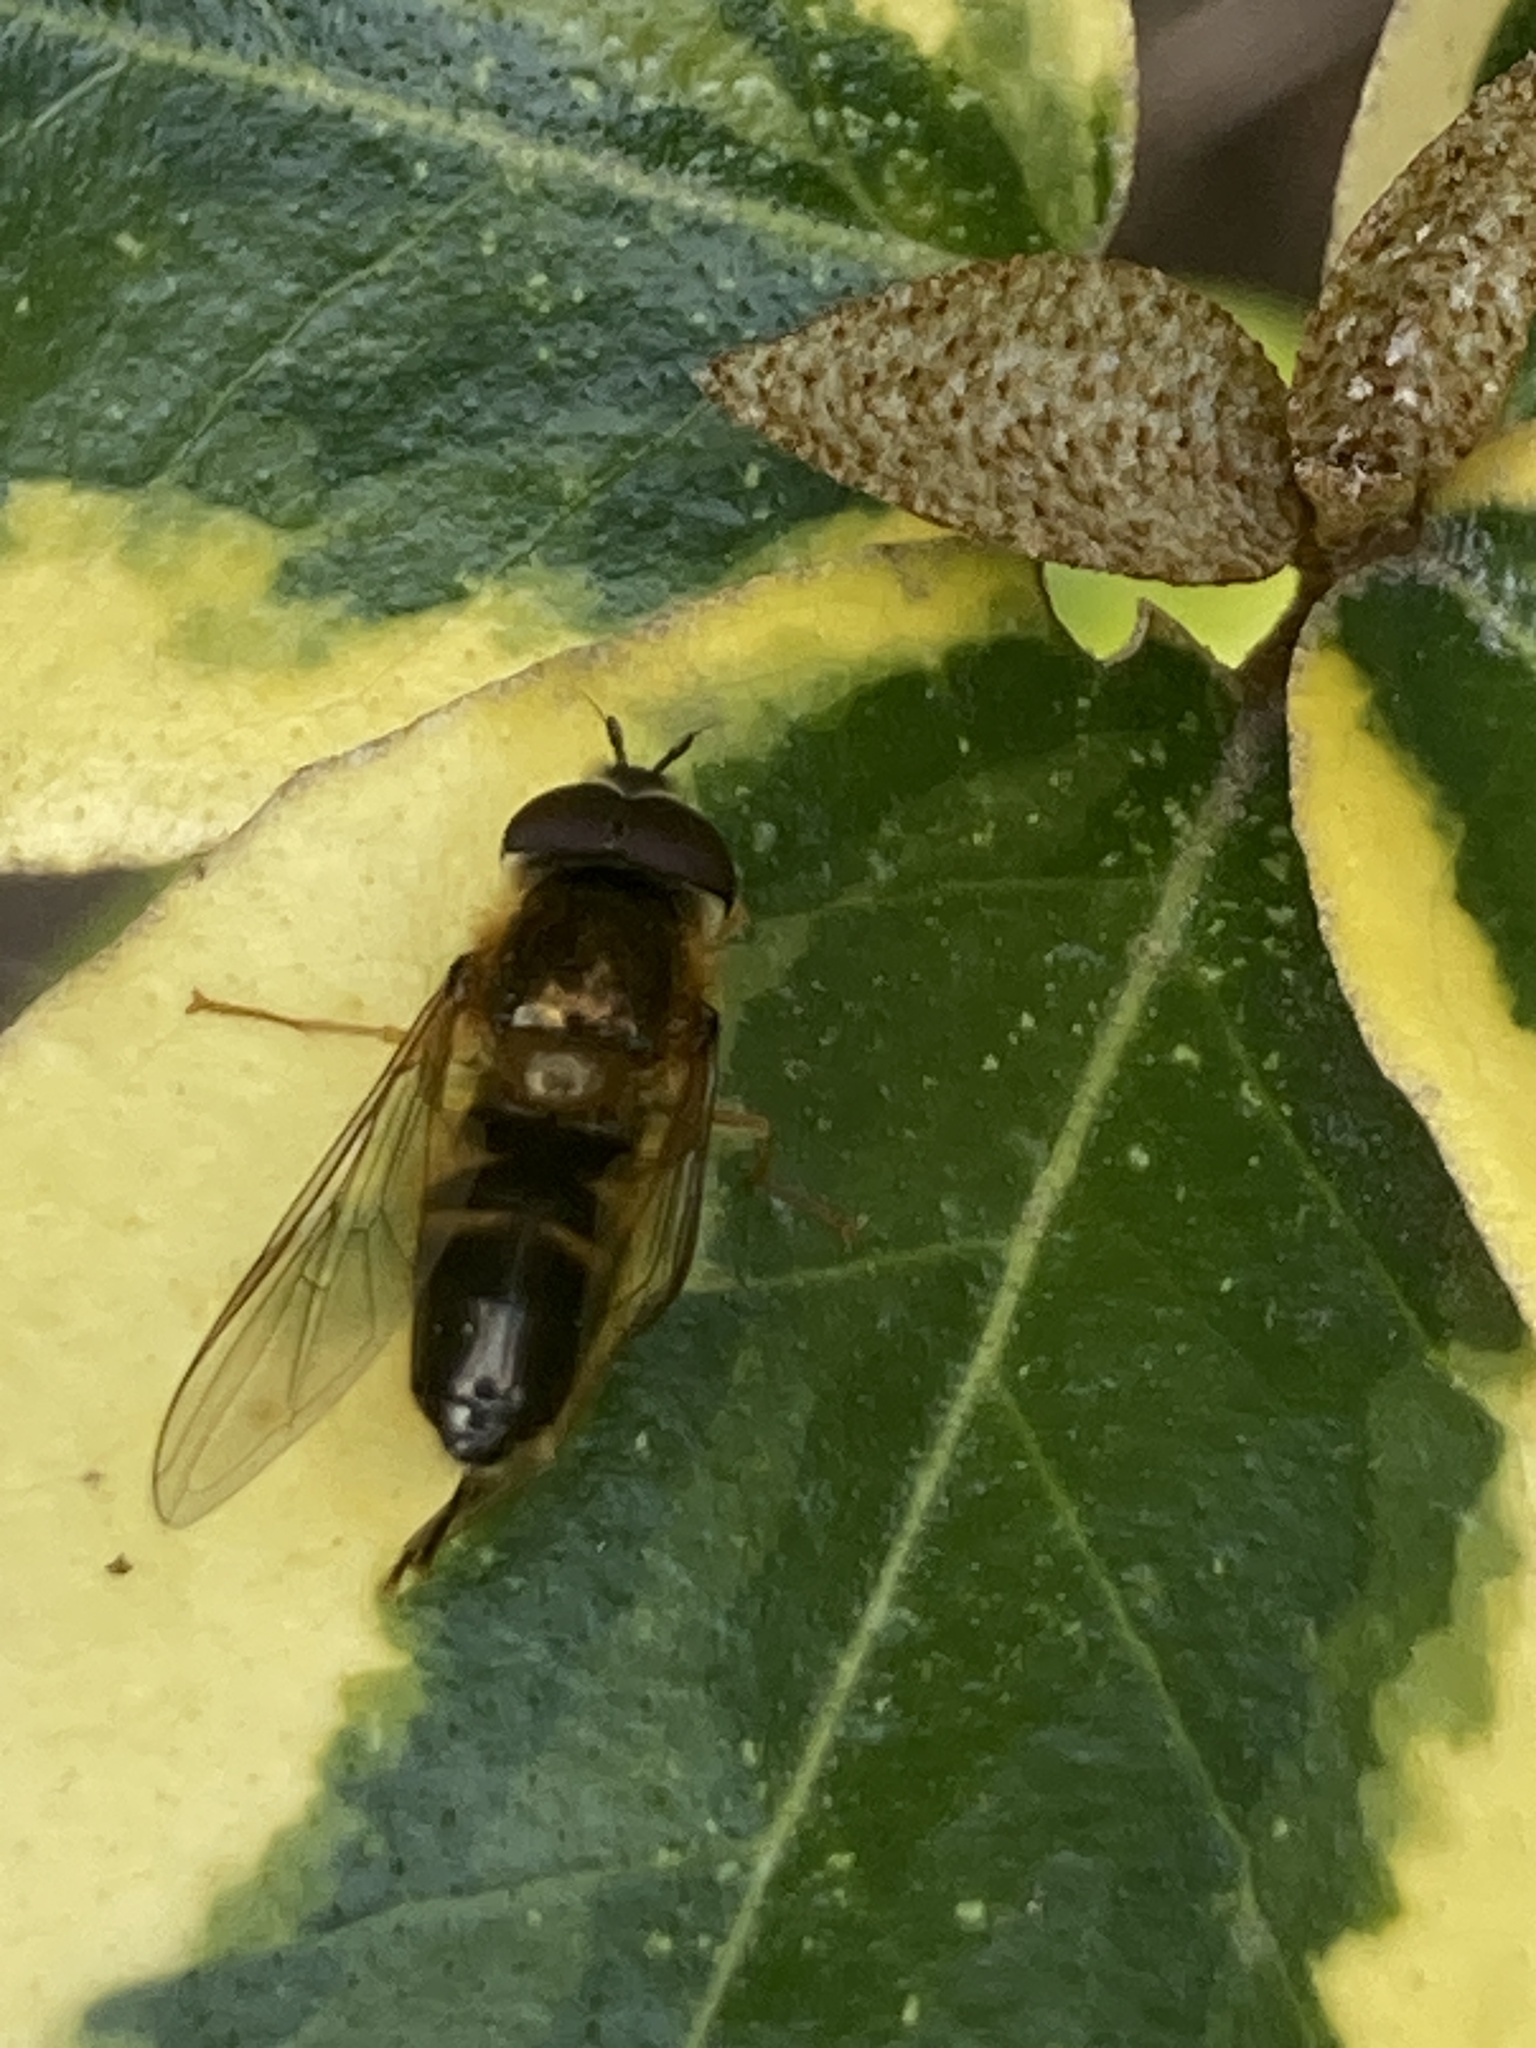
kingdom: Animalia
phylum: Arthropoda
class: Insecta
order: Diptera
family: Syrphidae
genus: Epistrophe
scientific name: Epistrophe eligans
